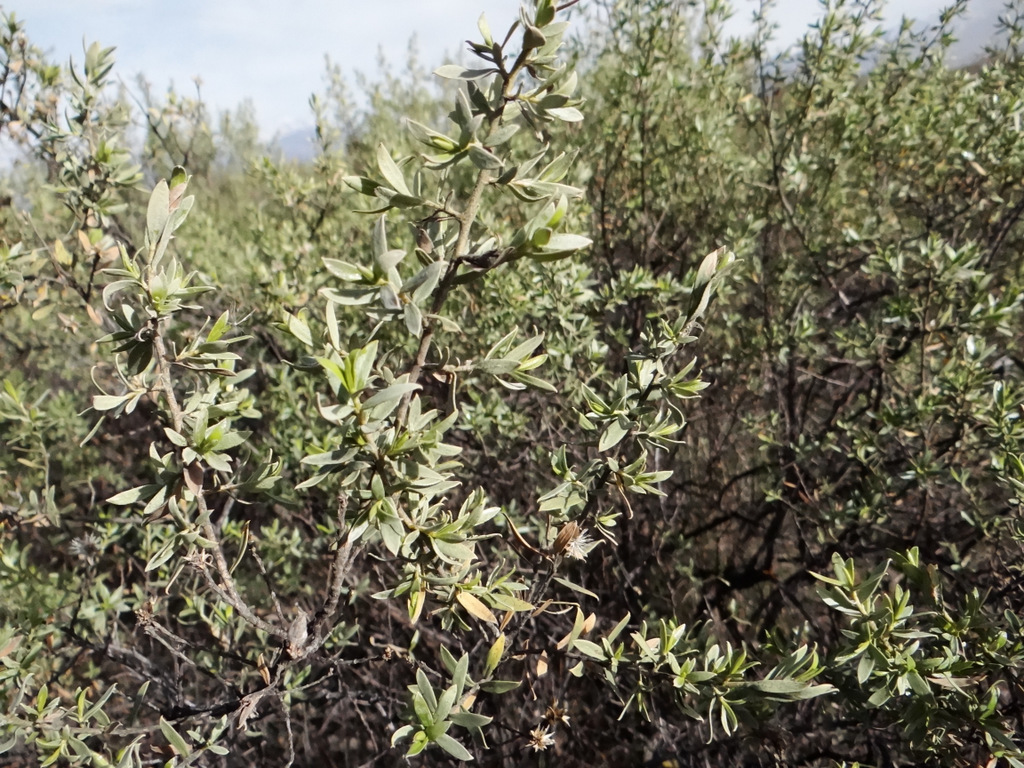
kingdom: Plantae
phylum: Tracheophyta
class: Magnoliopsida
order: Asterales
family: Asteraceae
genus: Gochnatia
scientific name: Gochnatia glutinosa
